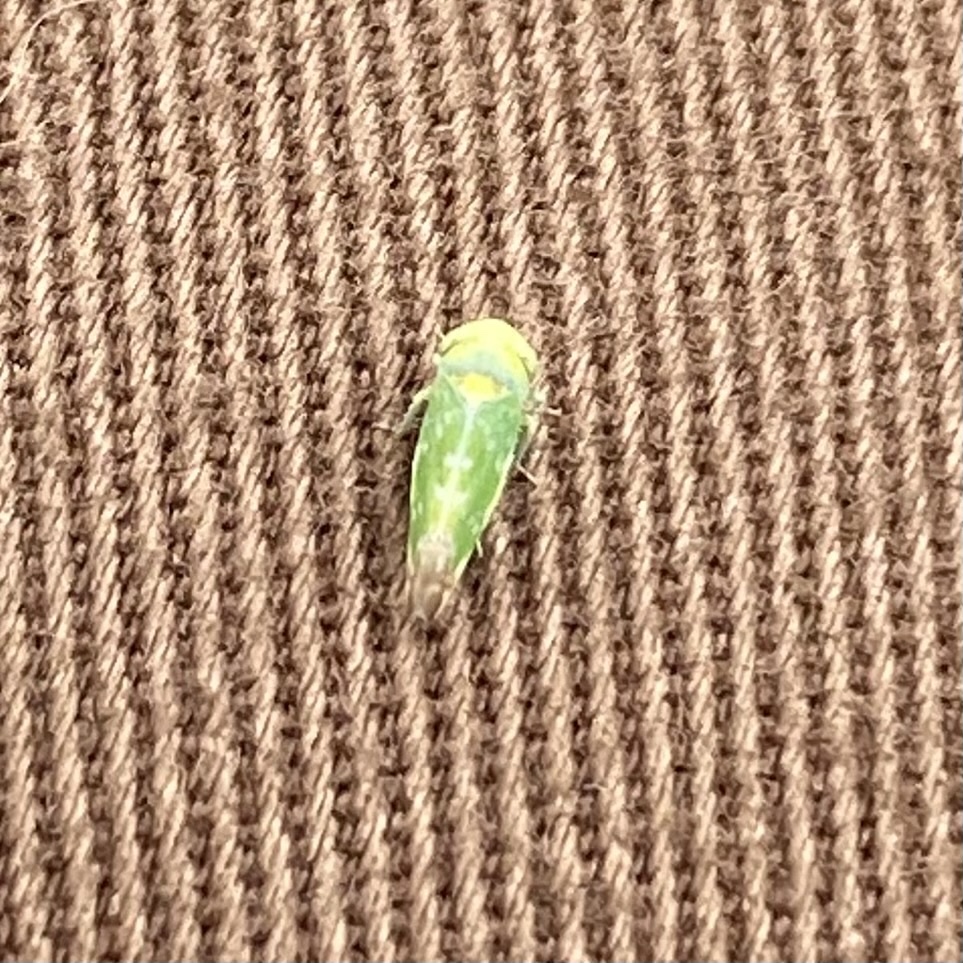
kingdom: Animalia
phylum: Arthropoda
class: Insecta
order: Hemiptera
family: Cicadellidae
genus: Opsius
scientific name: Opsius stactogalus
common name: Leafhopper
